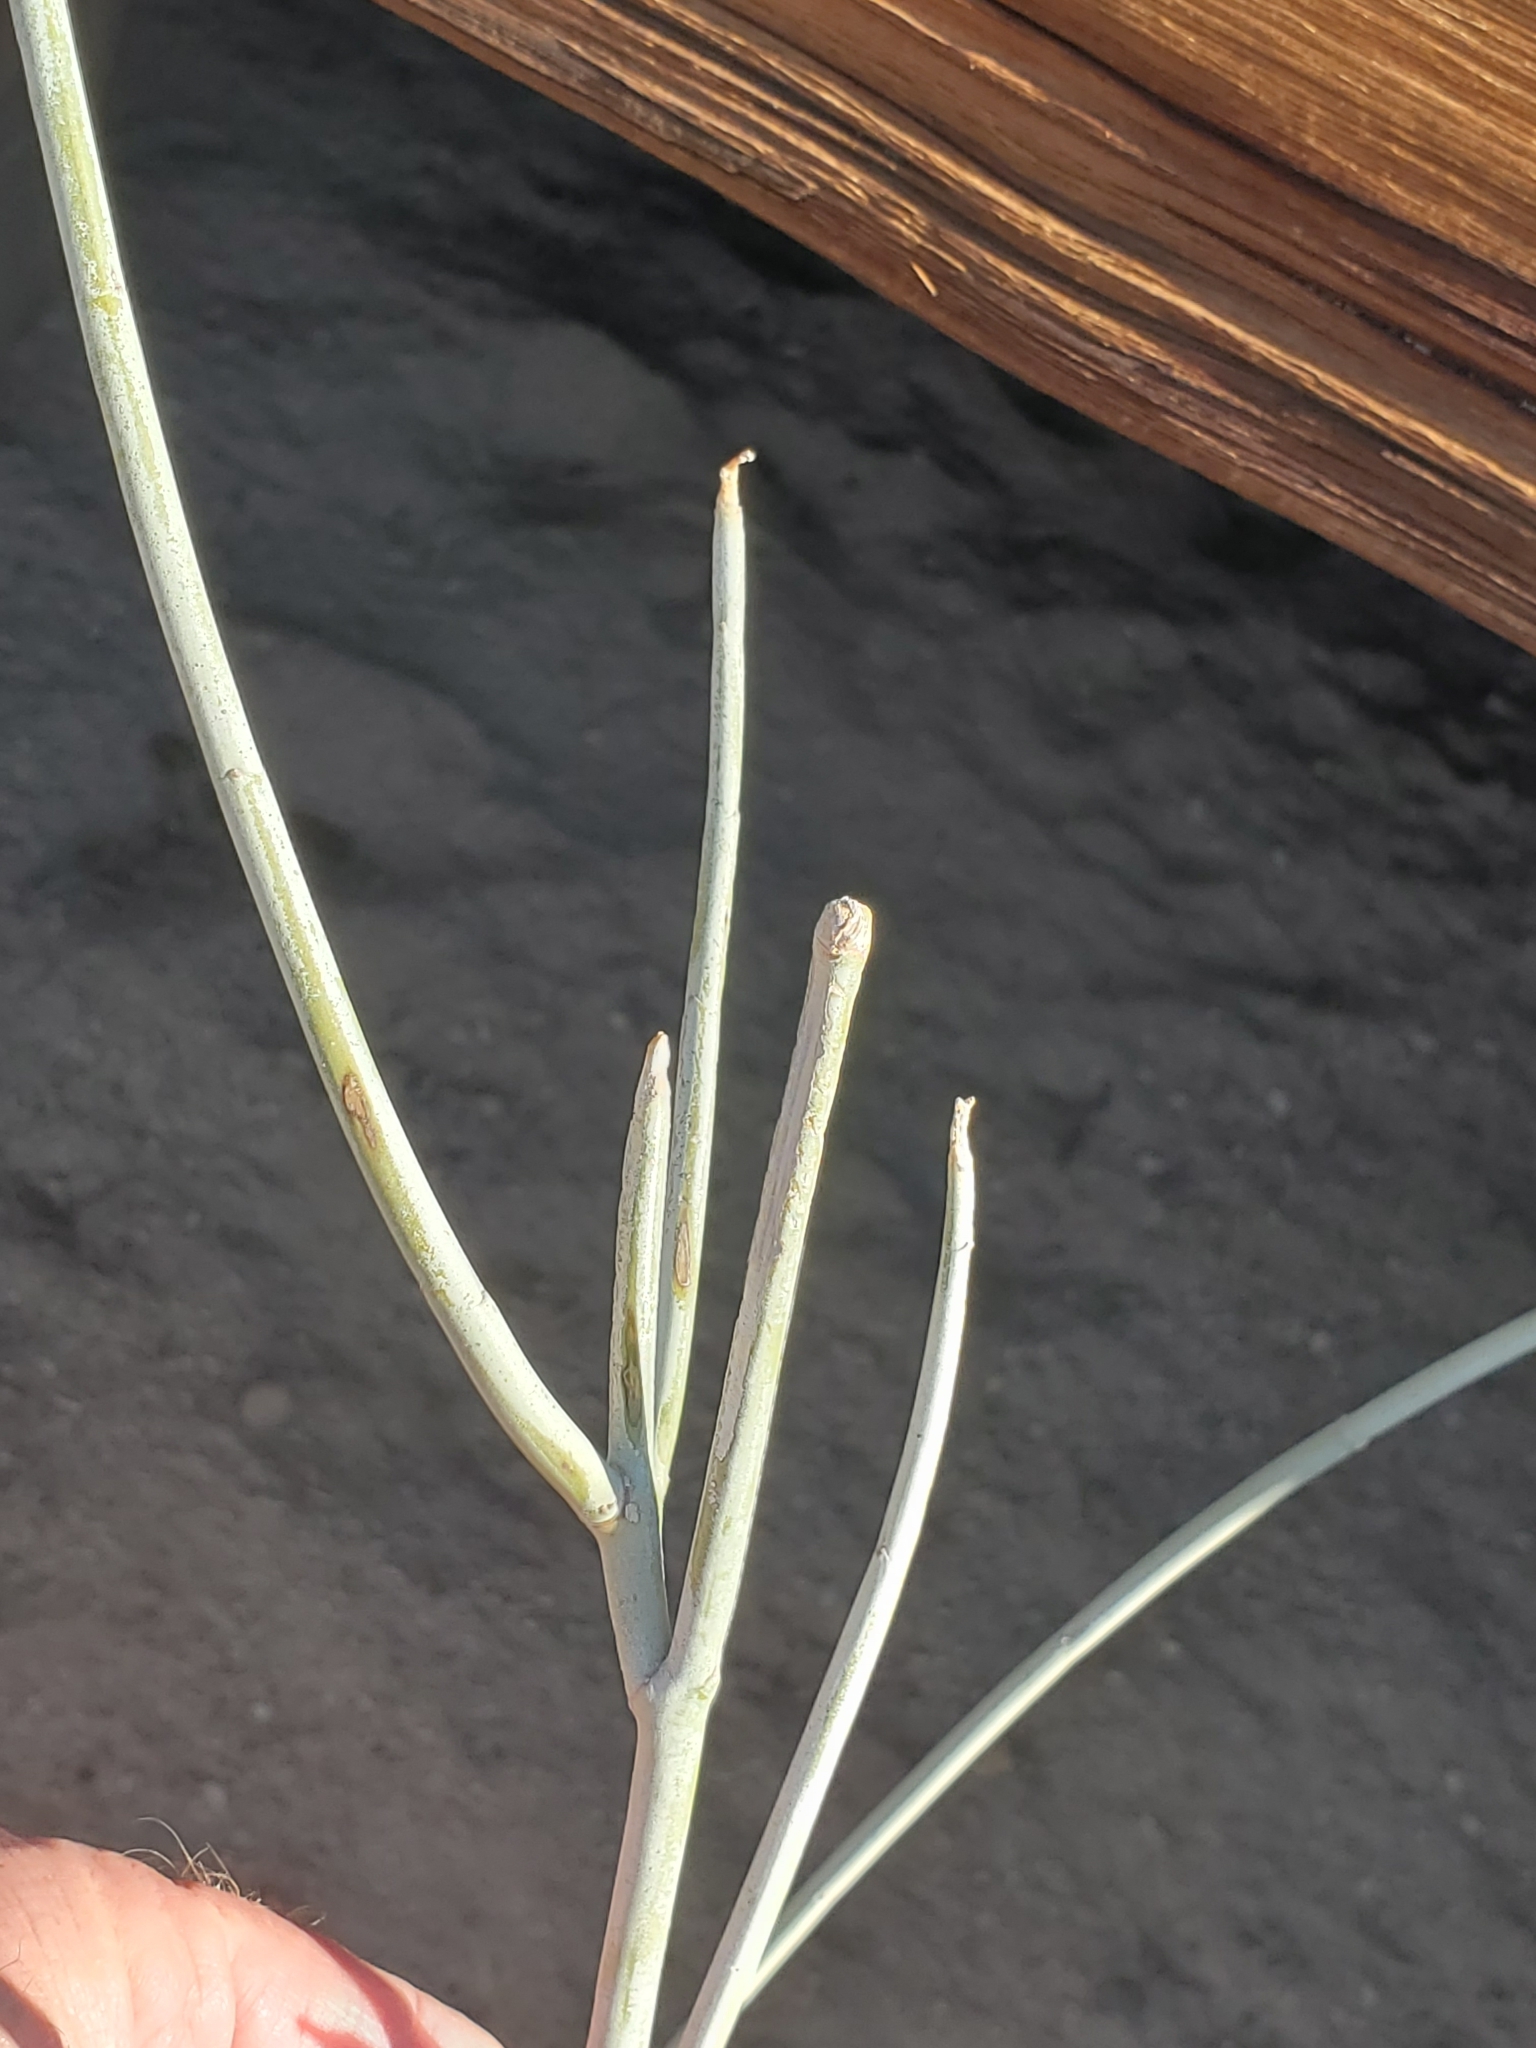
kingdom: Plantae
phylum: Tracheophyta
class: Magnoliopsida
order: Gentianales
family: Apocynaceae
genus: Asclepias
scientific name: Asclepias albicans
